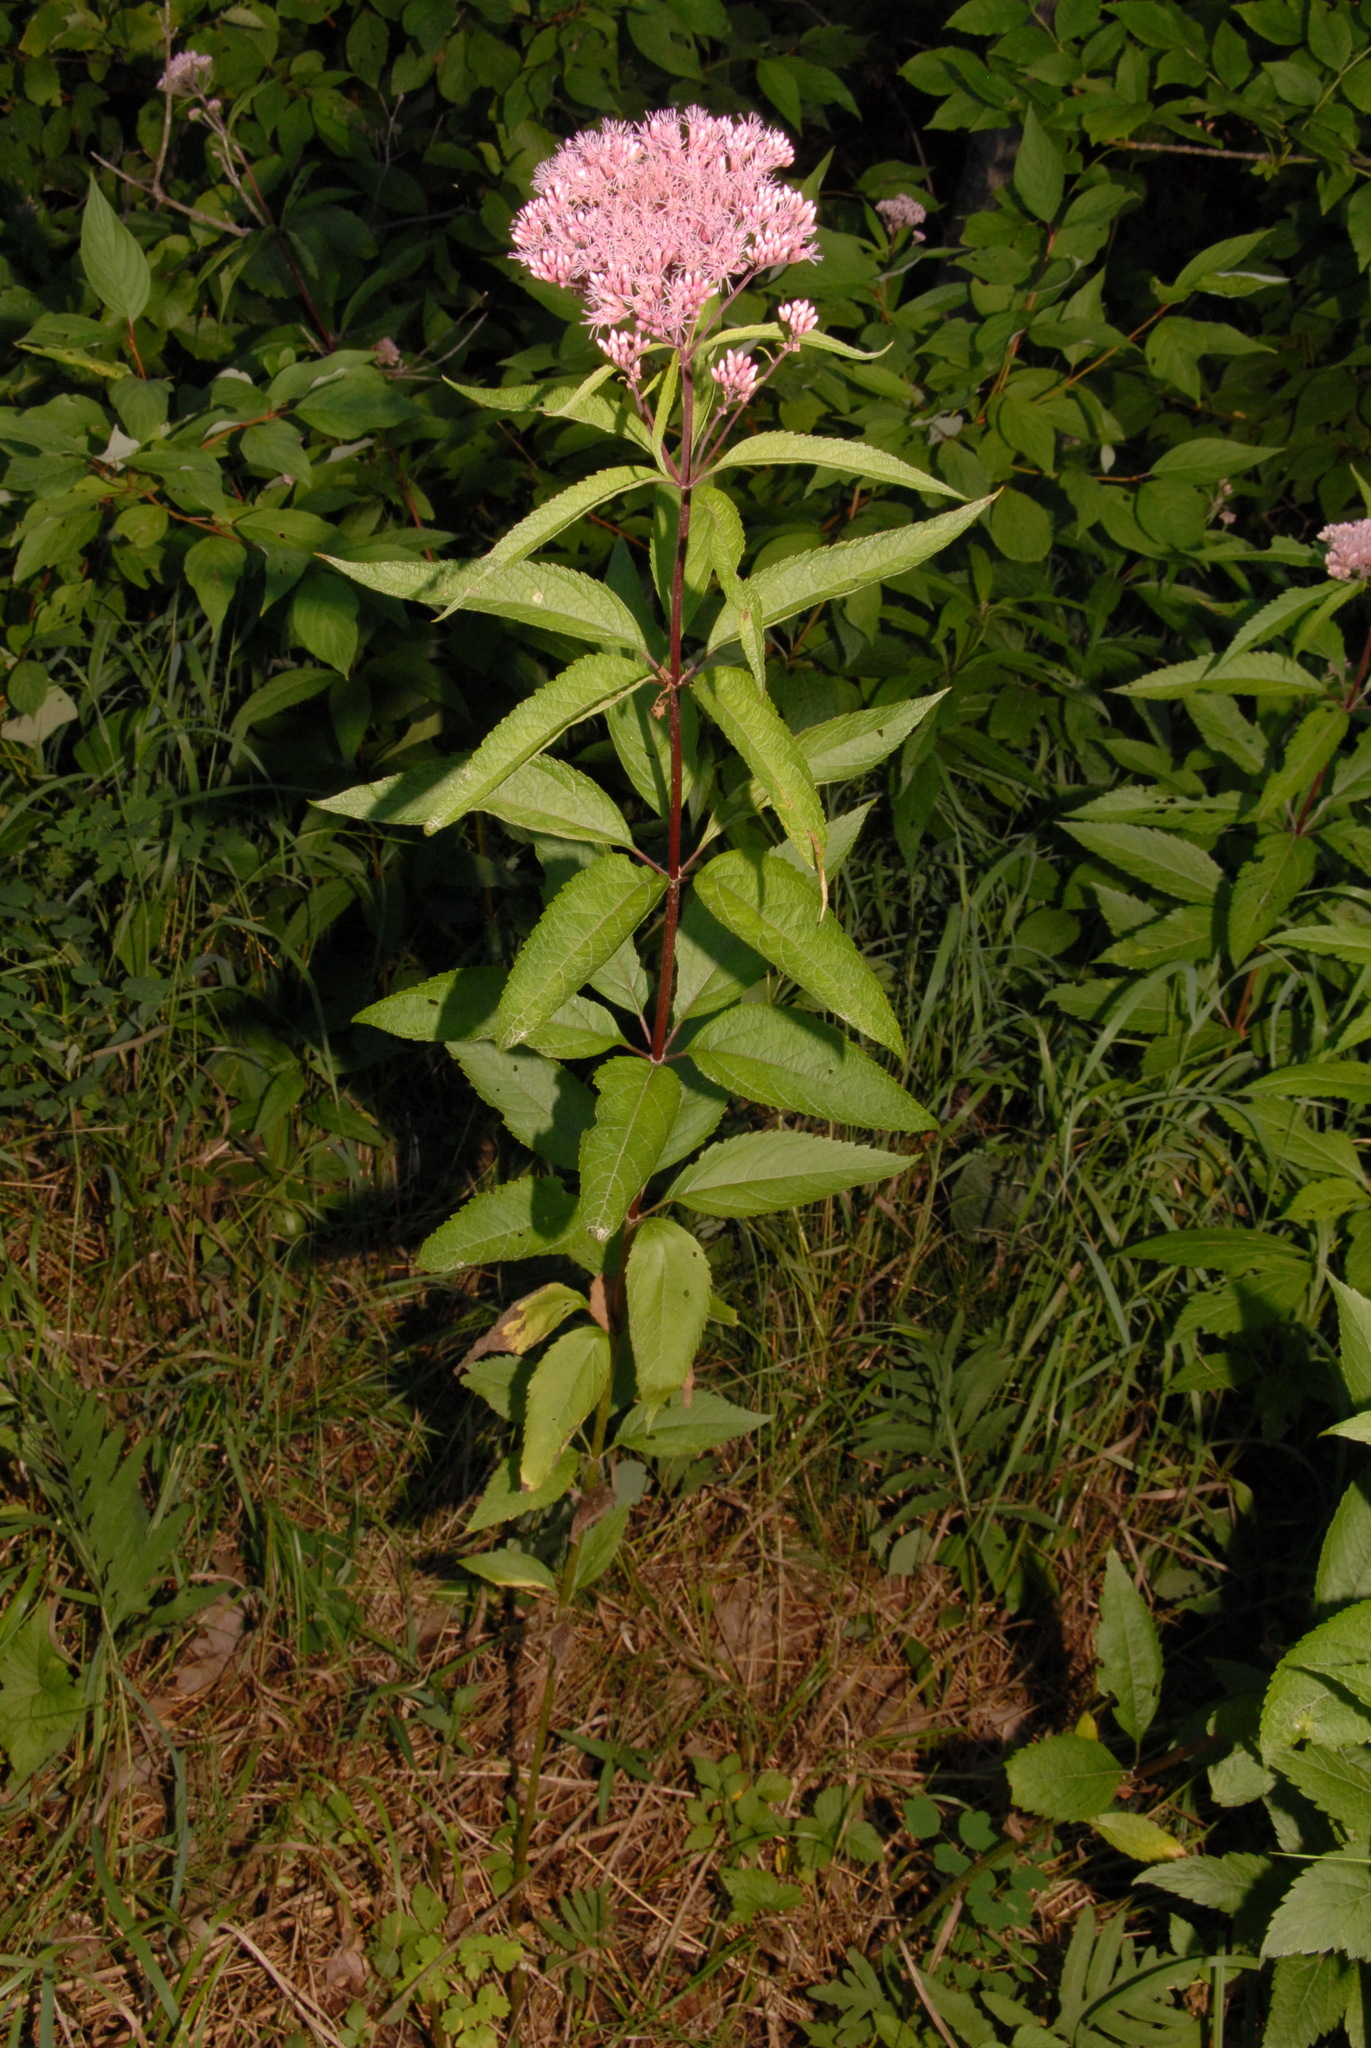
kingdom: Plantae
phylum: Tracheophyta
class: Magnoliopsida
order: Asterales
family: Asteraceae
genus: Eutrochium
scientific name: Eutrochium maculatum
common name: Spotted joe pye weed
